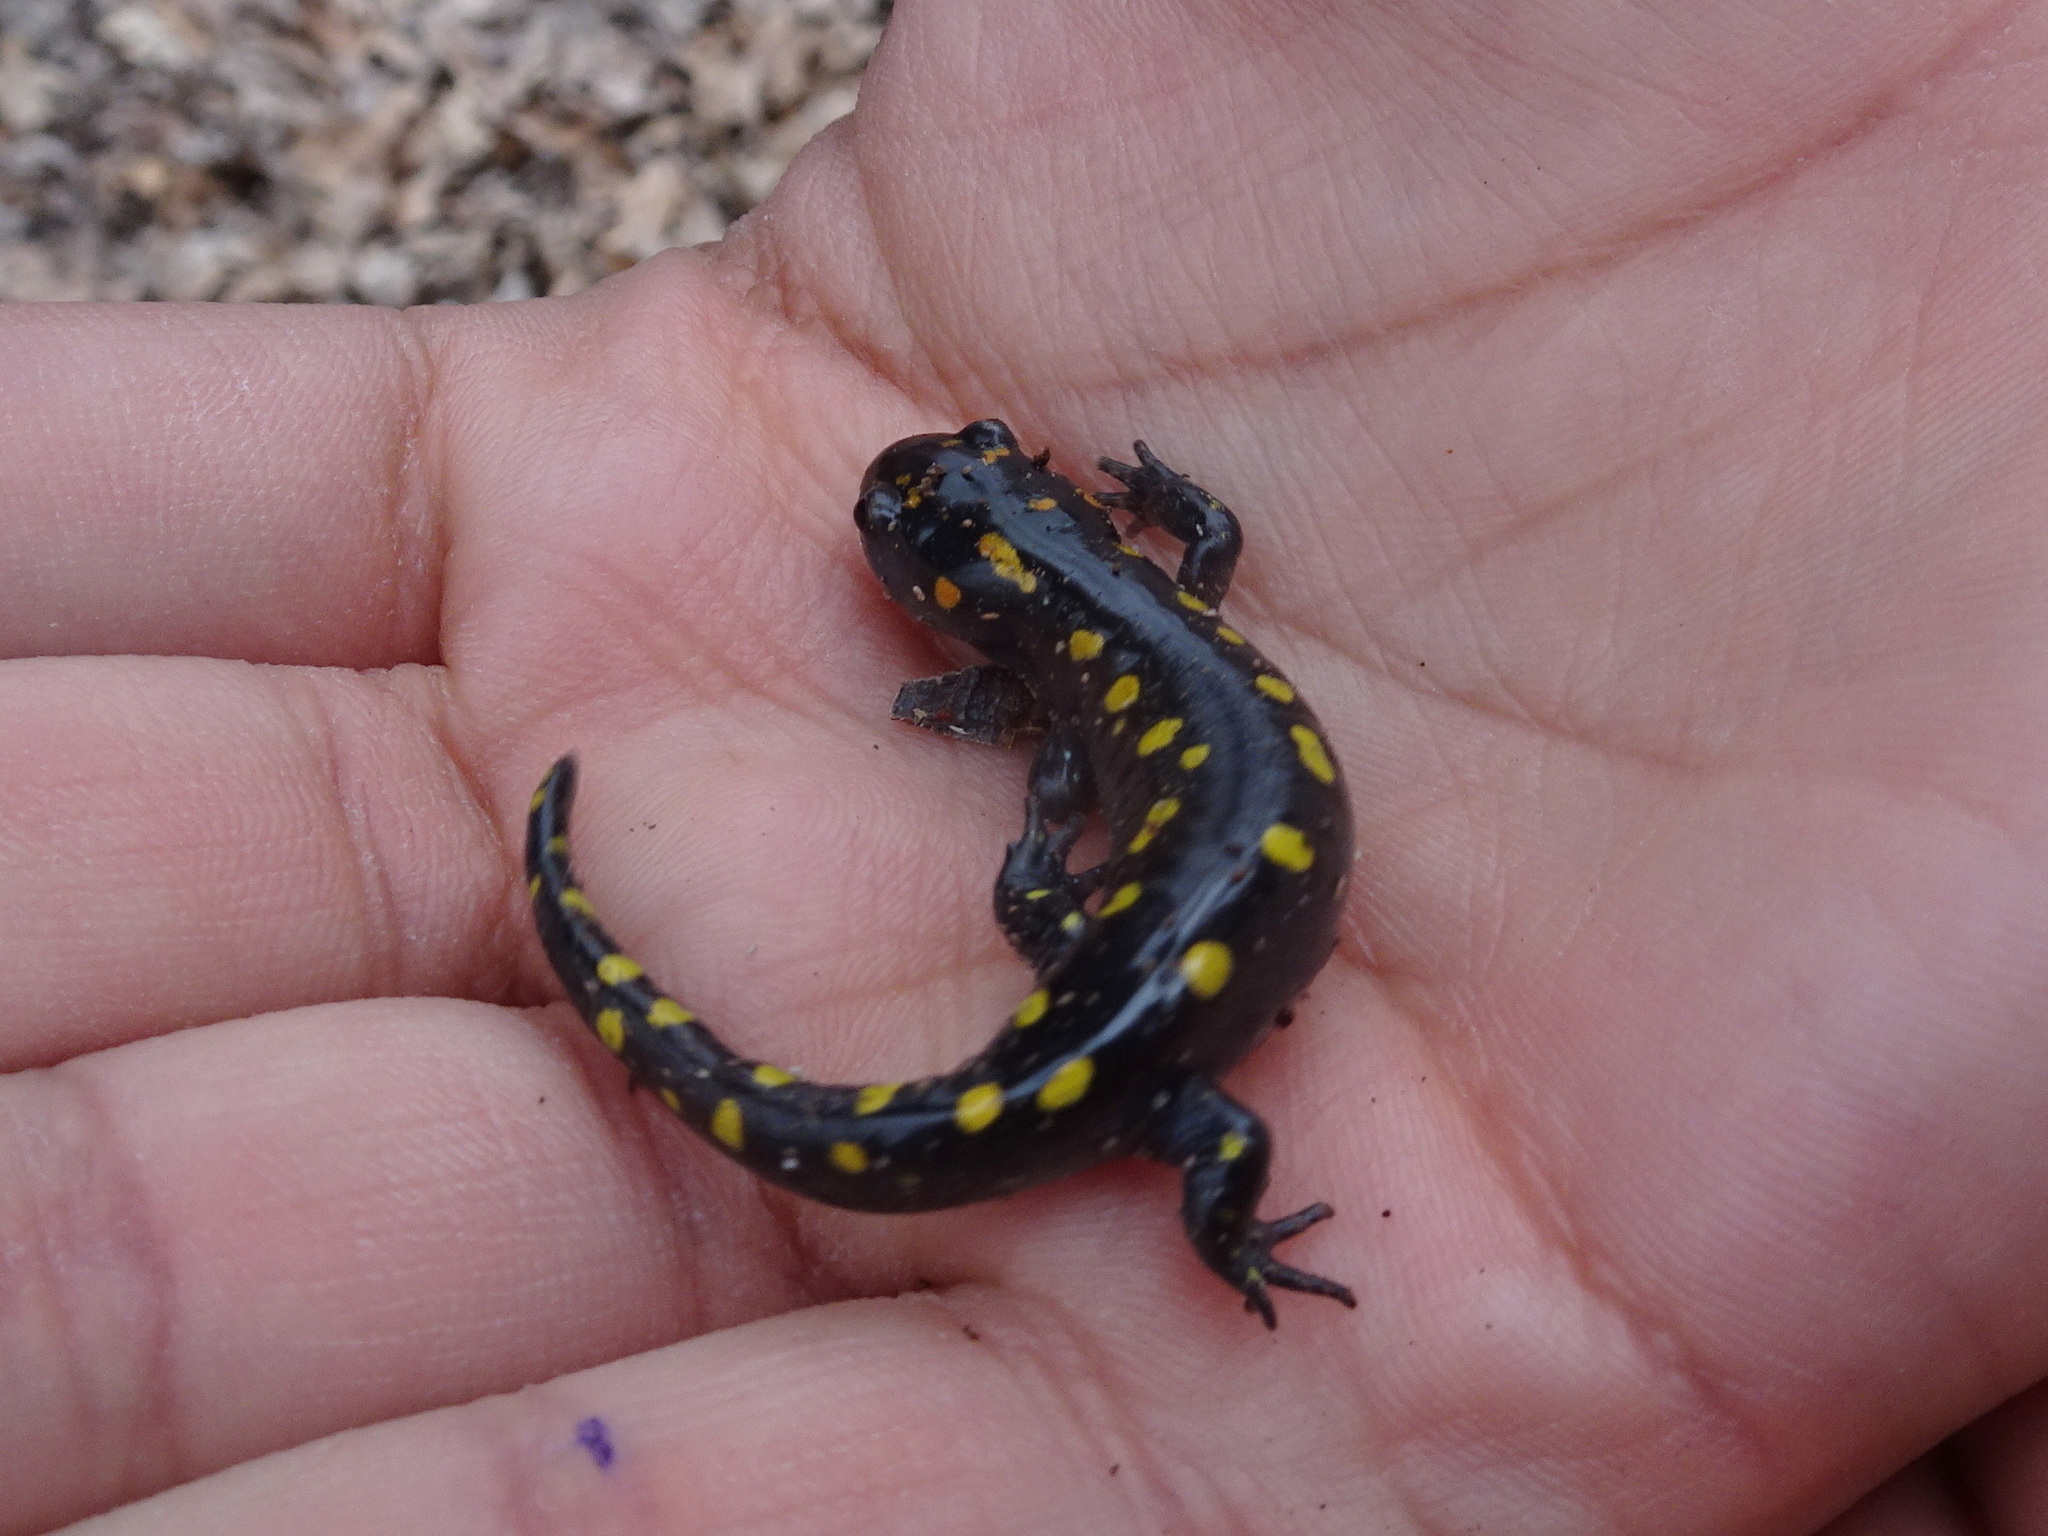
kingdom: Animalia
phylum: Chordata
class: Amphibia
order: Caudata
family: Ambystomatidae
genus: Ambystoma
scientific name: Ambystoma maculatum
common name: Spotted salamander
